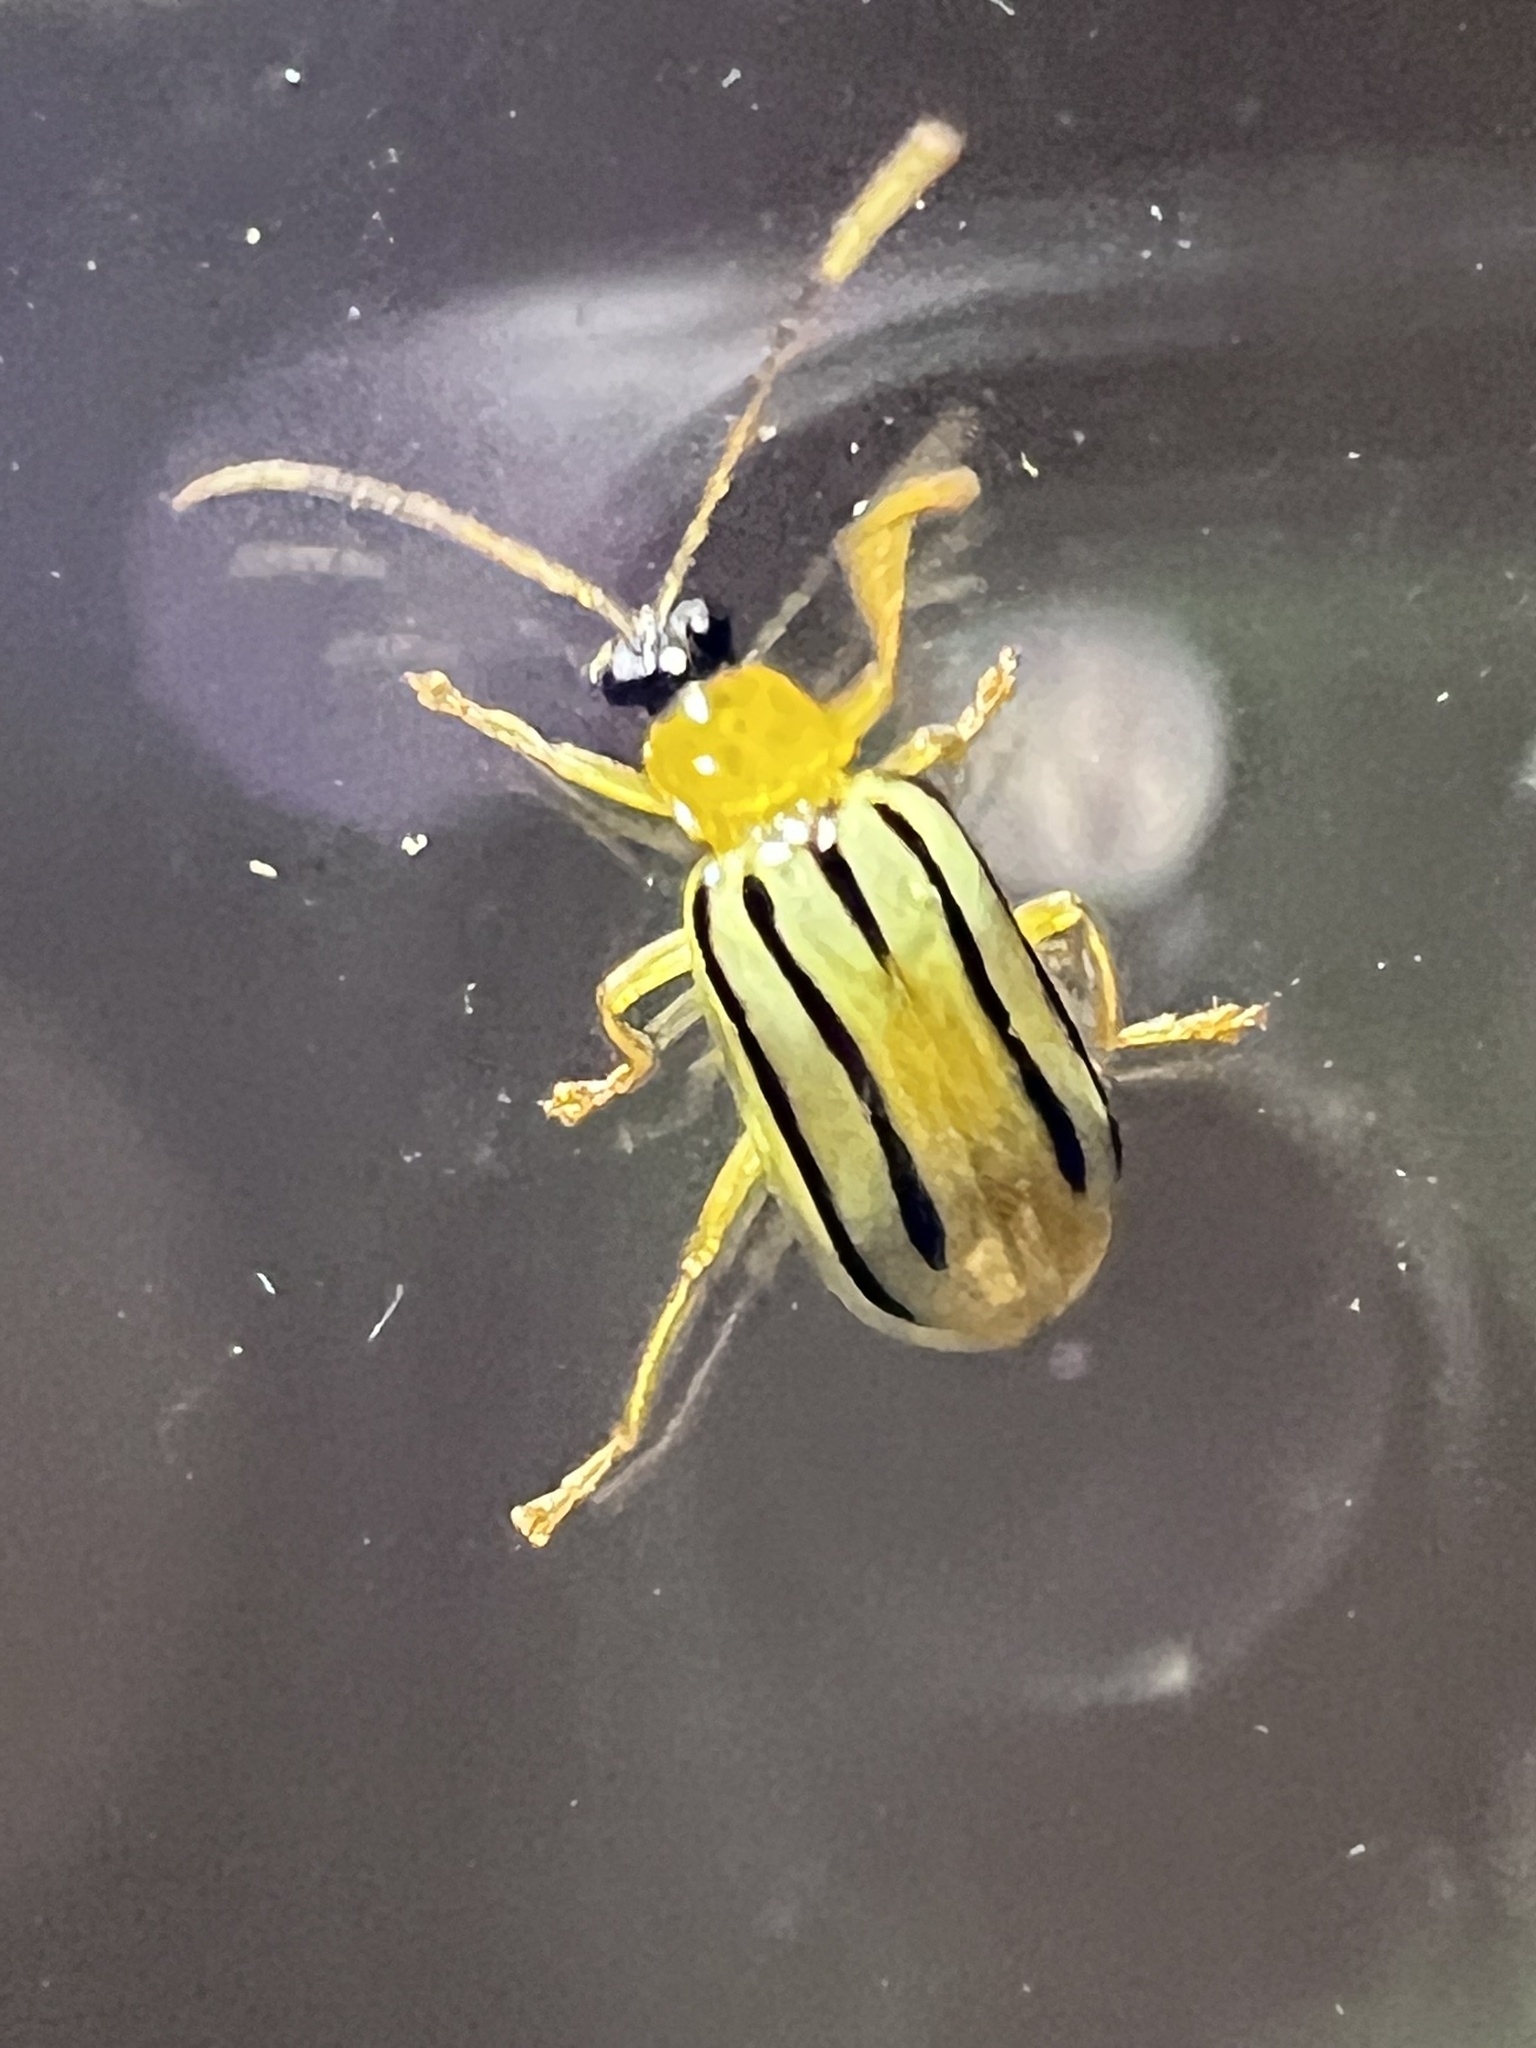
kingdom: Animalia
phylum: Arthropoda
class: Insecta
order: Coleoptera
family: Chrysomelidae
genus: Diabrotica
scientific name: Diabrotica
